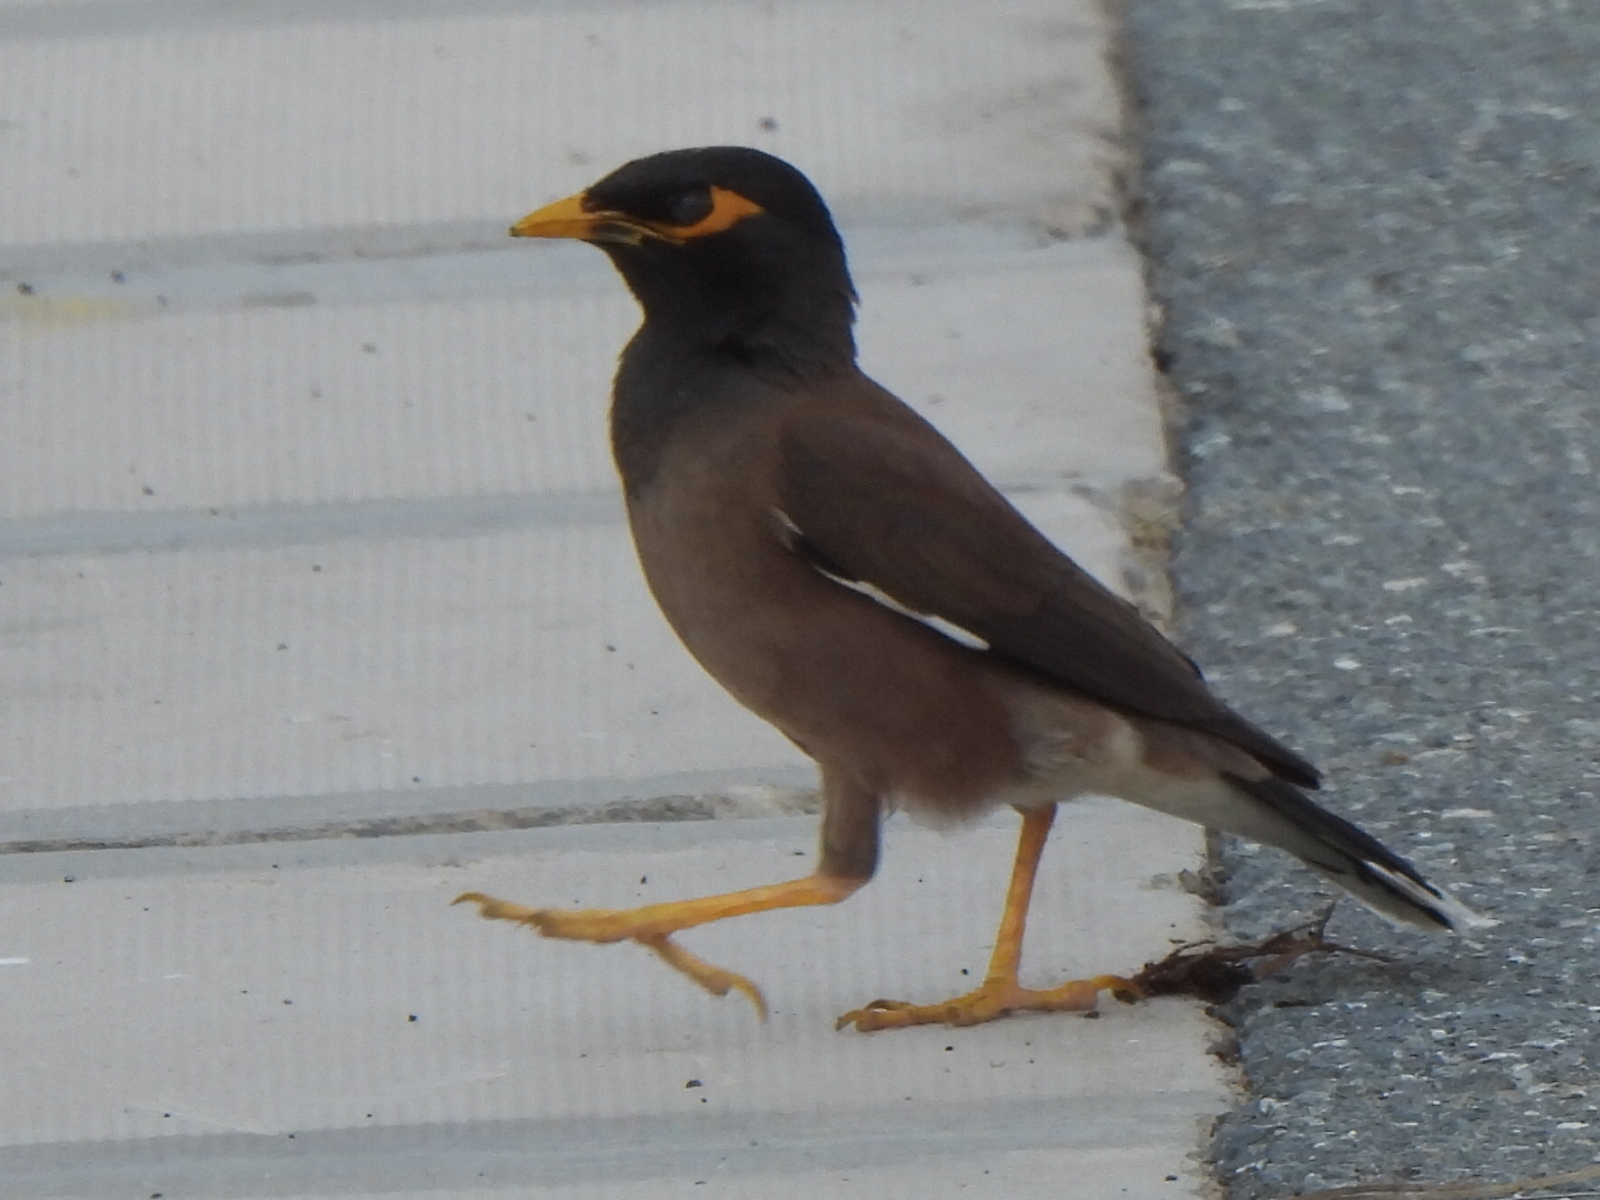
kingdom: Animalia
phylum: Chordata
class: Aves
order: Passeriformes
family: Sturnidae
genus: Acridotheres
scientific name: Acridotheres tristis
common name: Common myna
